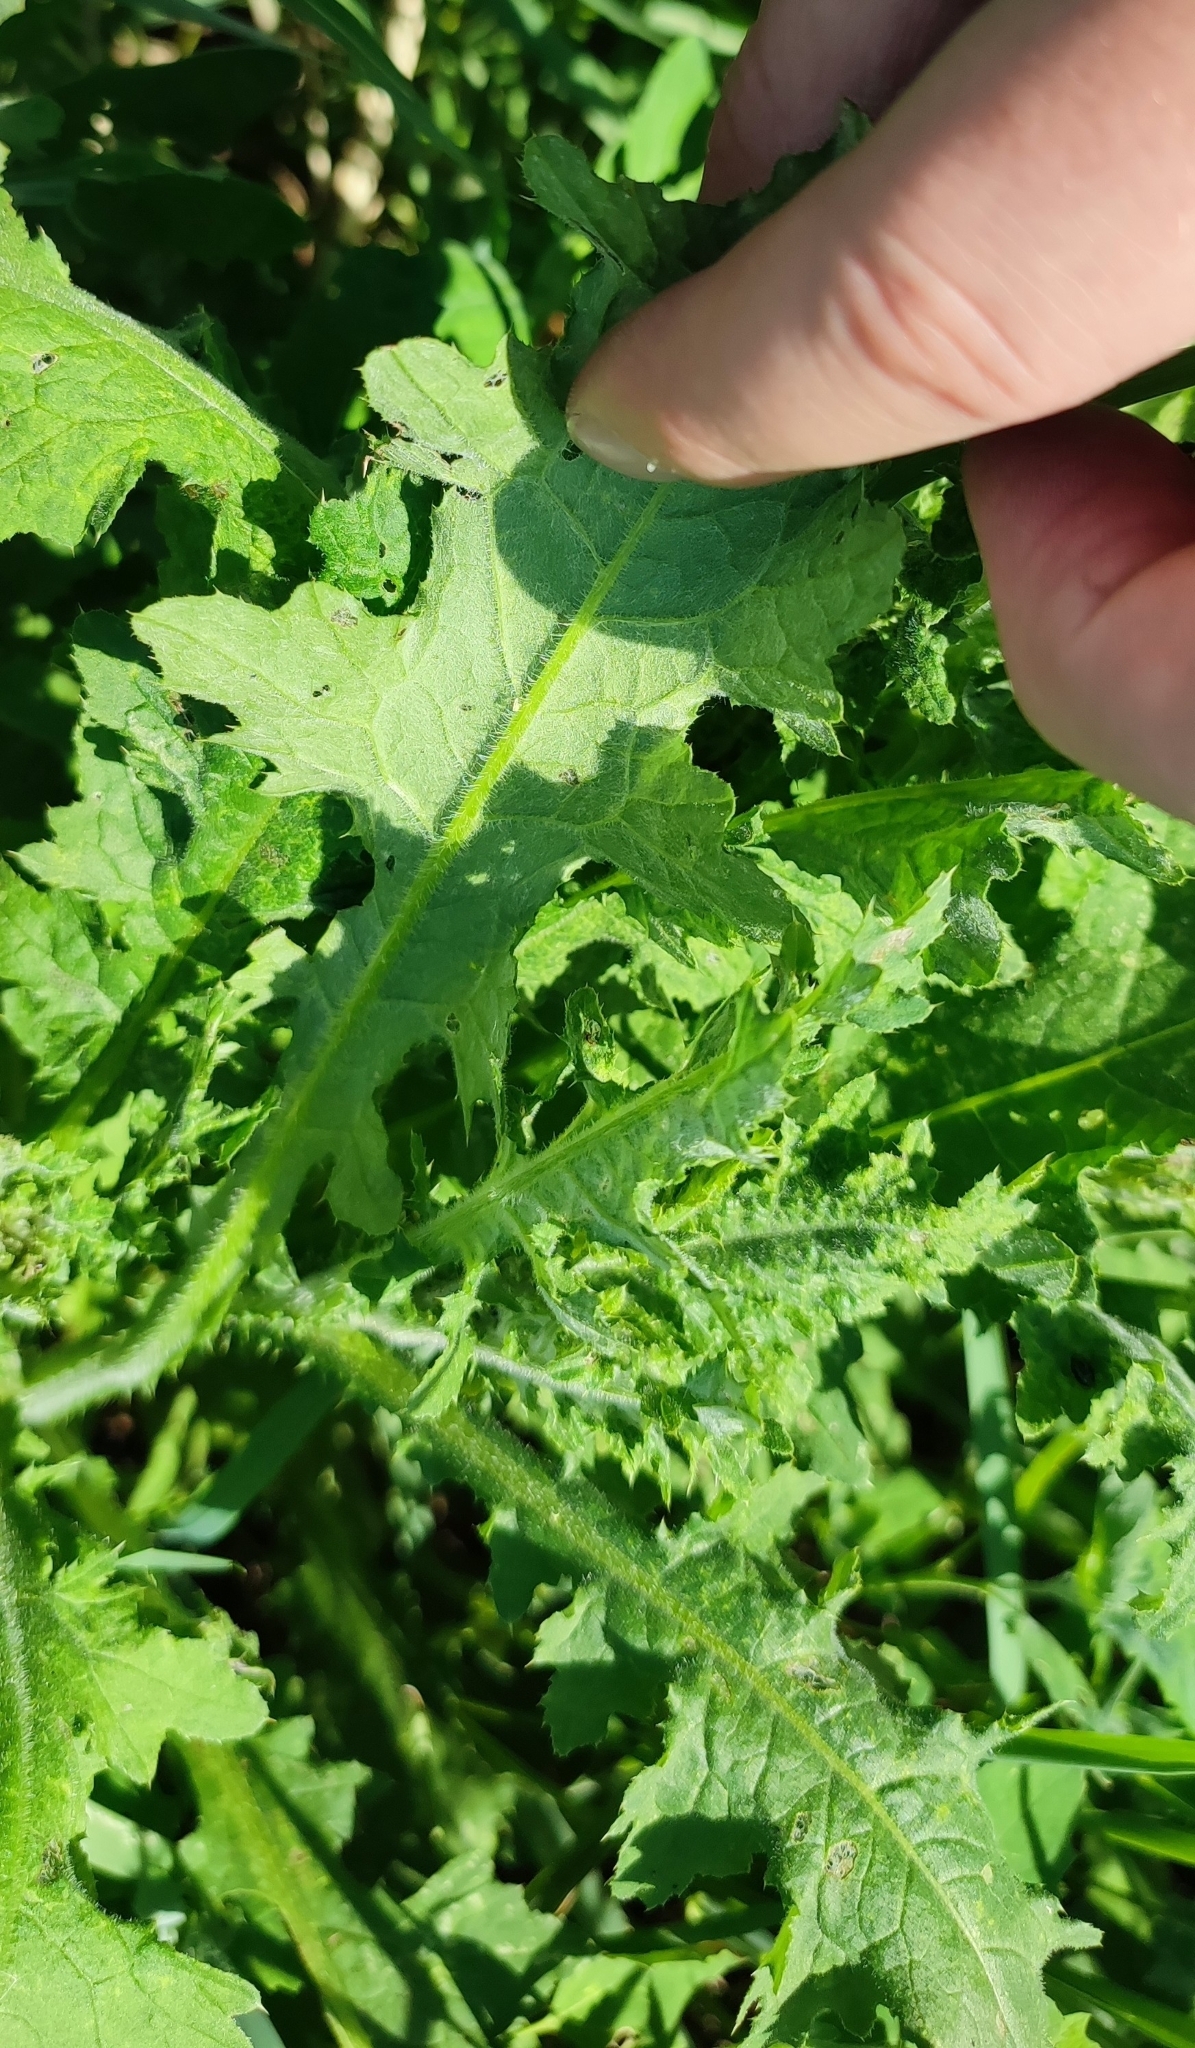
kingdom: Plantae
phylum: Tracheophyta
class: Magnoliopsida
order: Asterales
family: Asteraceae
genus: Carduus
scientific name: Carduus crispus
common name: Welted thistle
